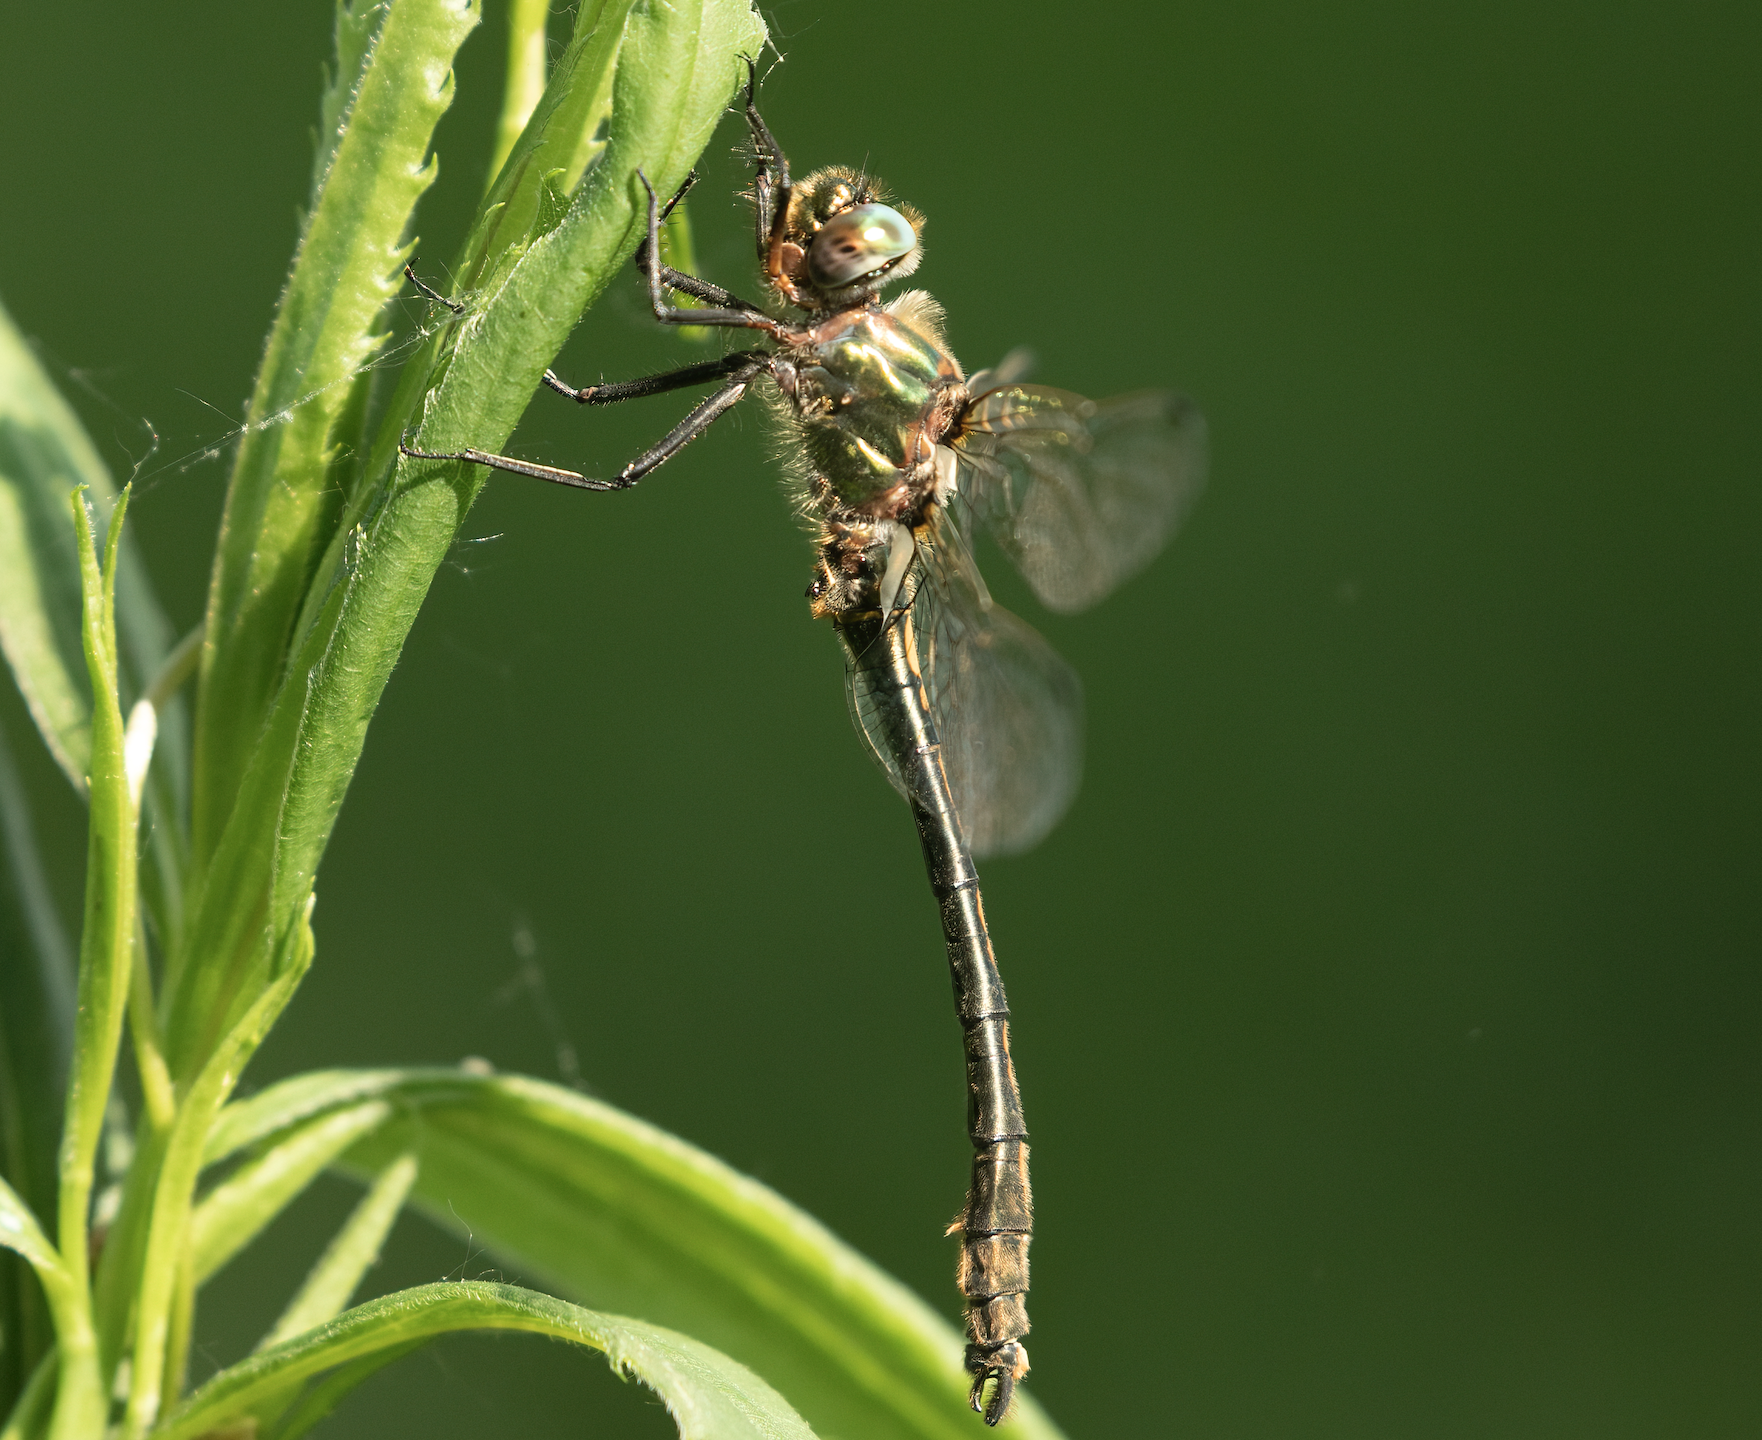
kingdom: Animalia
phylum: Arthropoda
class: Insecta
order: Odonata
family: Corduliidae
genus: Oxygastra
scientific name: Oxygastra curtisii
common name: Orange-spotted emerald
